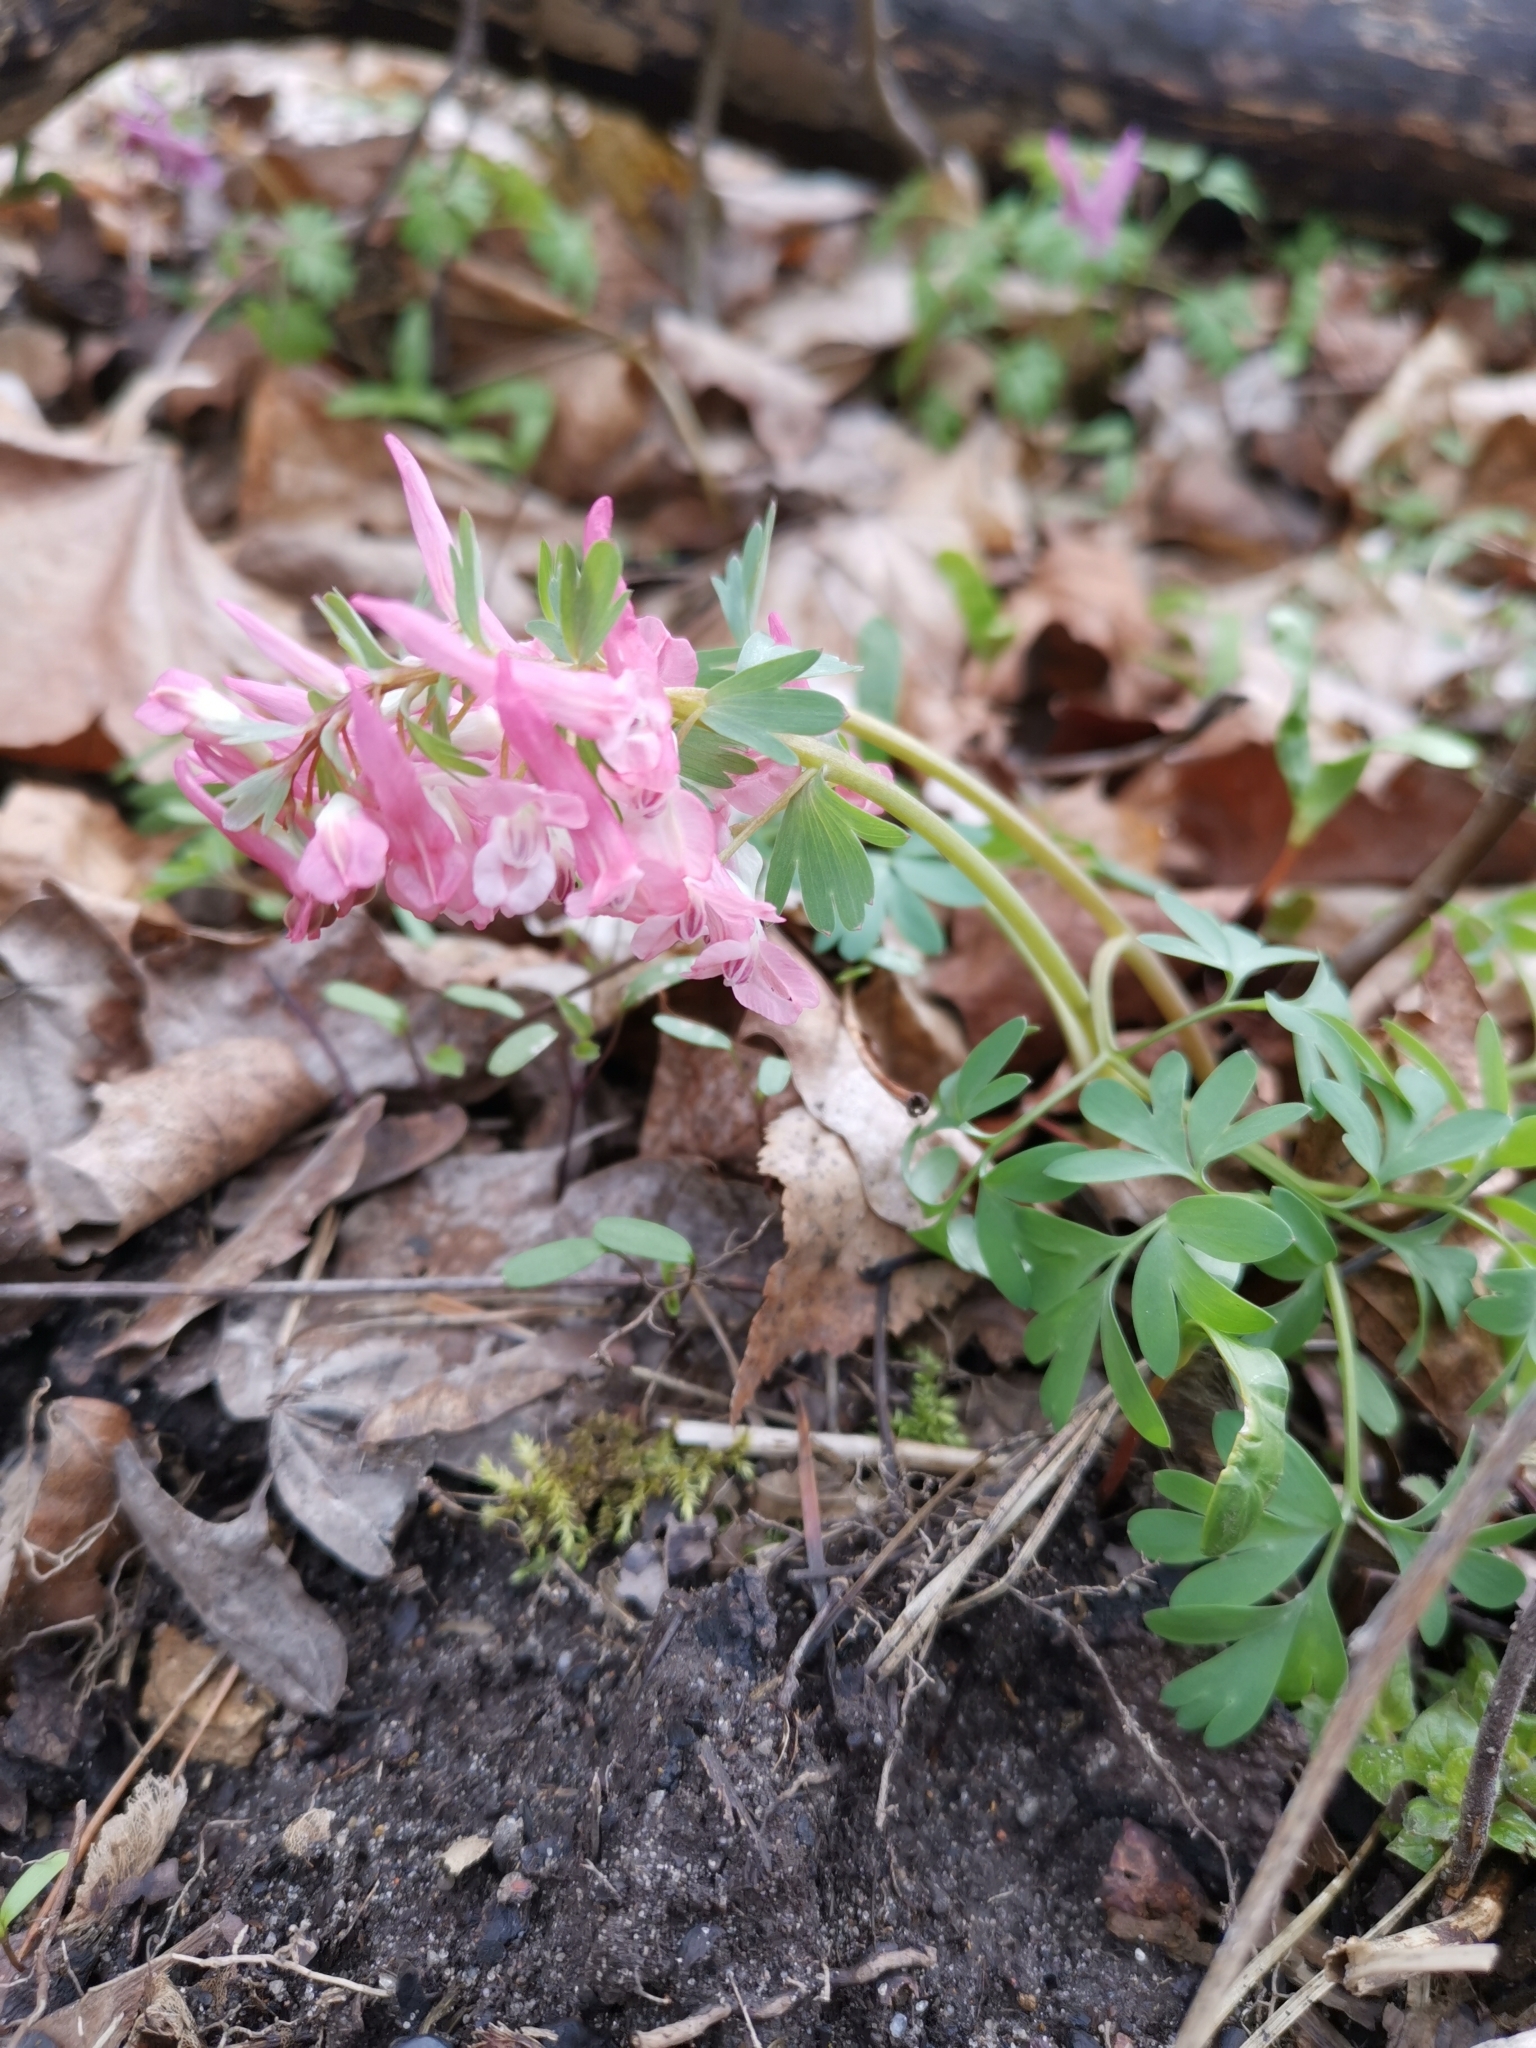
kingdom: Plantae
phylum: Tracheophyta
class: Magnoliopsida
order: Ranunculales
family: Papaveraceae
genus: Corydalis
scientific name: Corydalis solida
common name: Bird-in-a-bush
